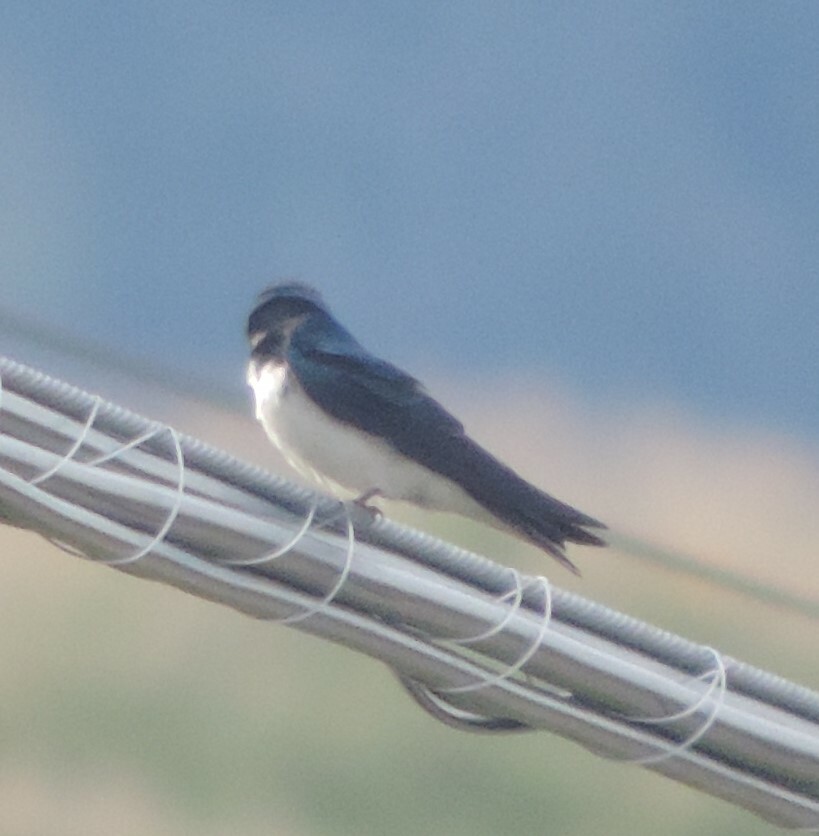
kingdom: Animalia
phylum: Chordata
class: Aves
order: Passeriformes
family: Hirundinidae
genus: Tachycineta
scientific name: Tachycineta bicolor
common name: Tree swallow
